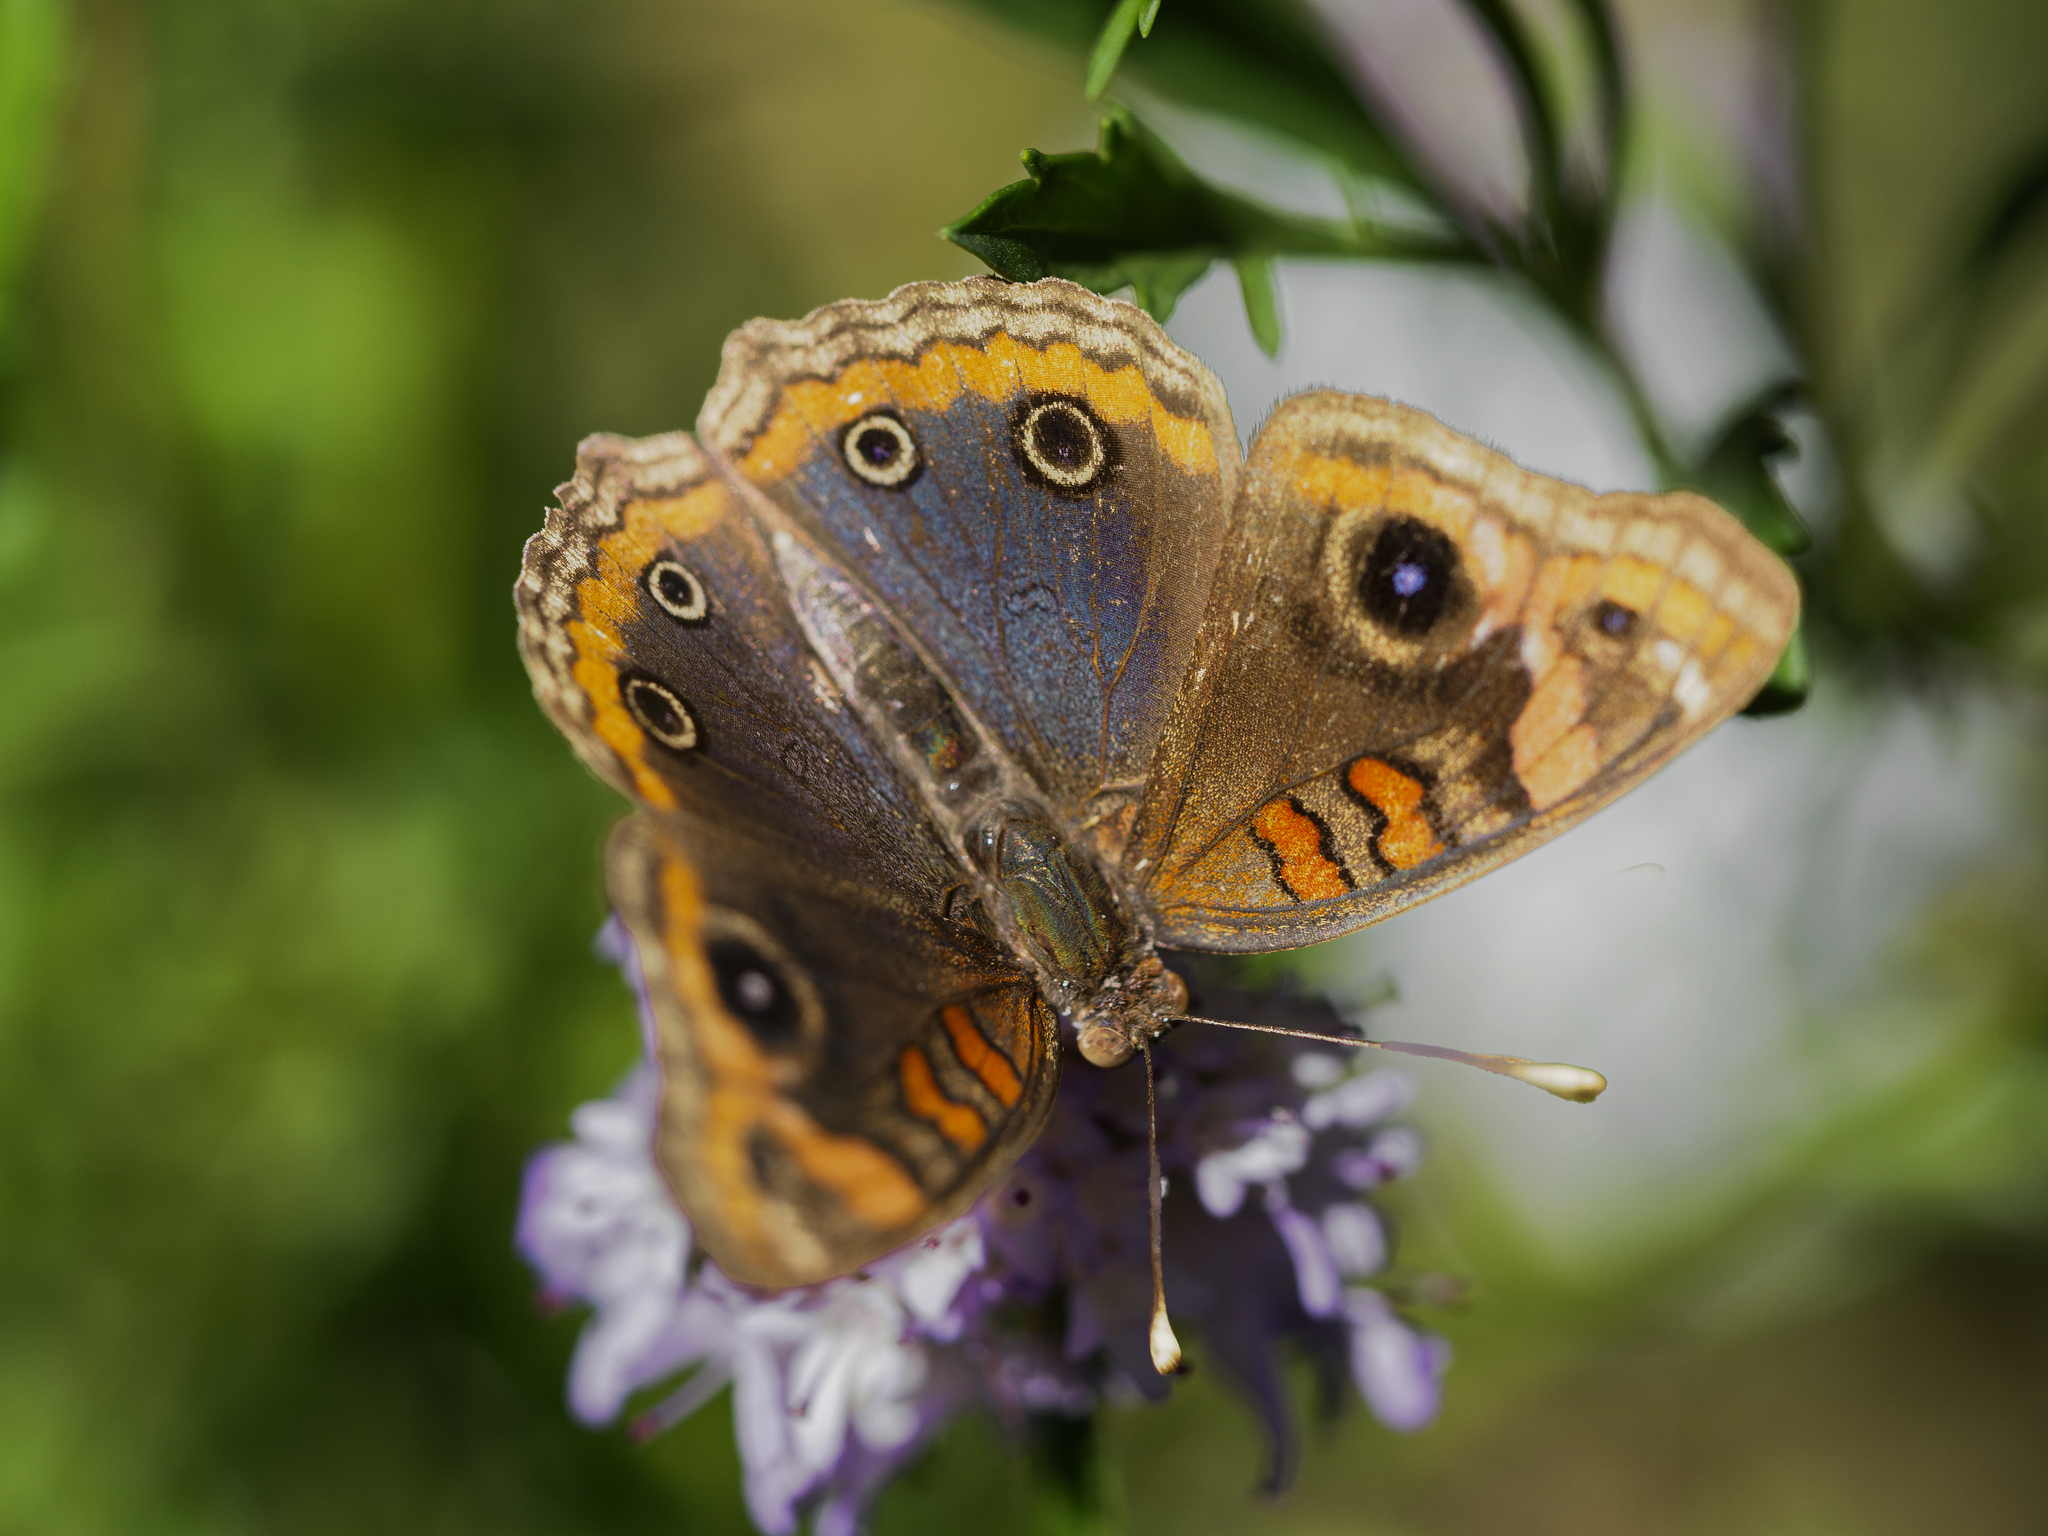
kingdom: Animalia
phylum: Arthropoda
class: Insecta
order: Lepidoptera
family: Nymphalidae
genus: Junonia
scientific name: Junonia lavinia
